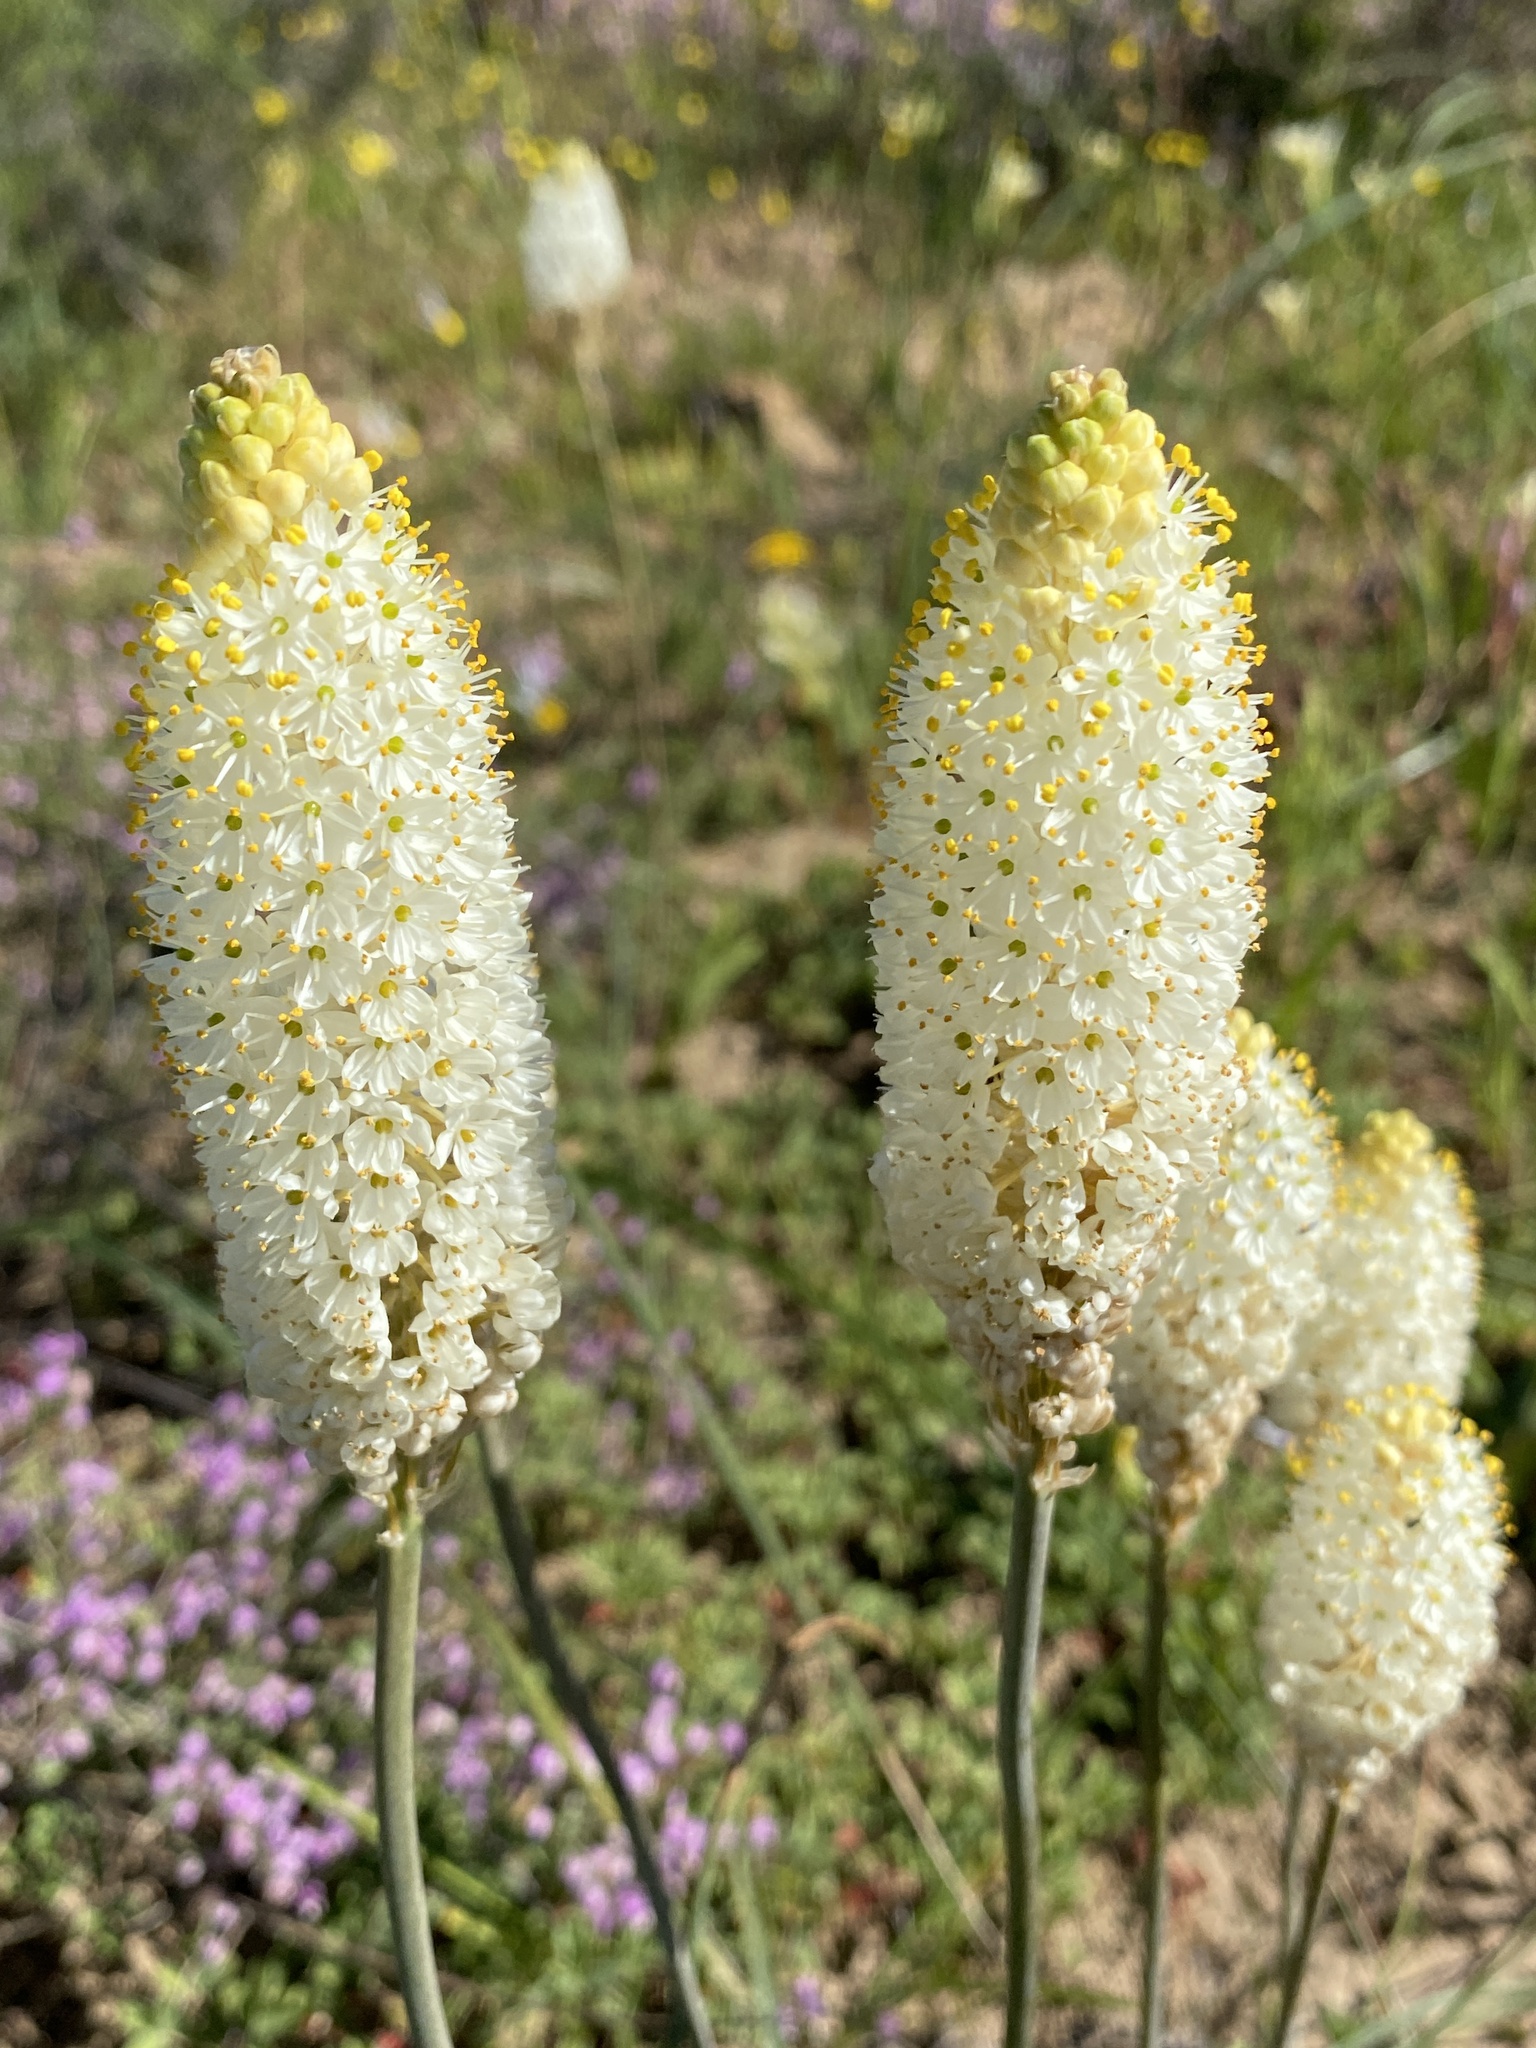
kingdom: Plantae
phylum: Tracheophyta
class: Liliopsida
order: Asparagales
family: Asphodelaceae
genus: Bulbinella
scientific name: Bulbinella cauda-felis
